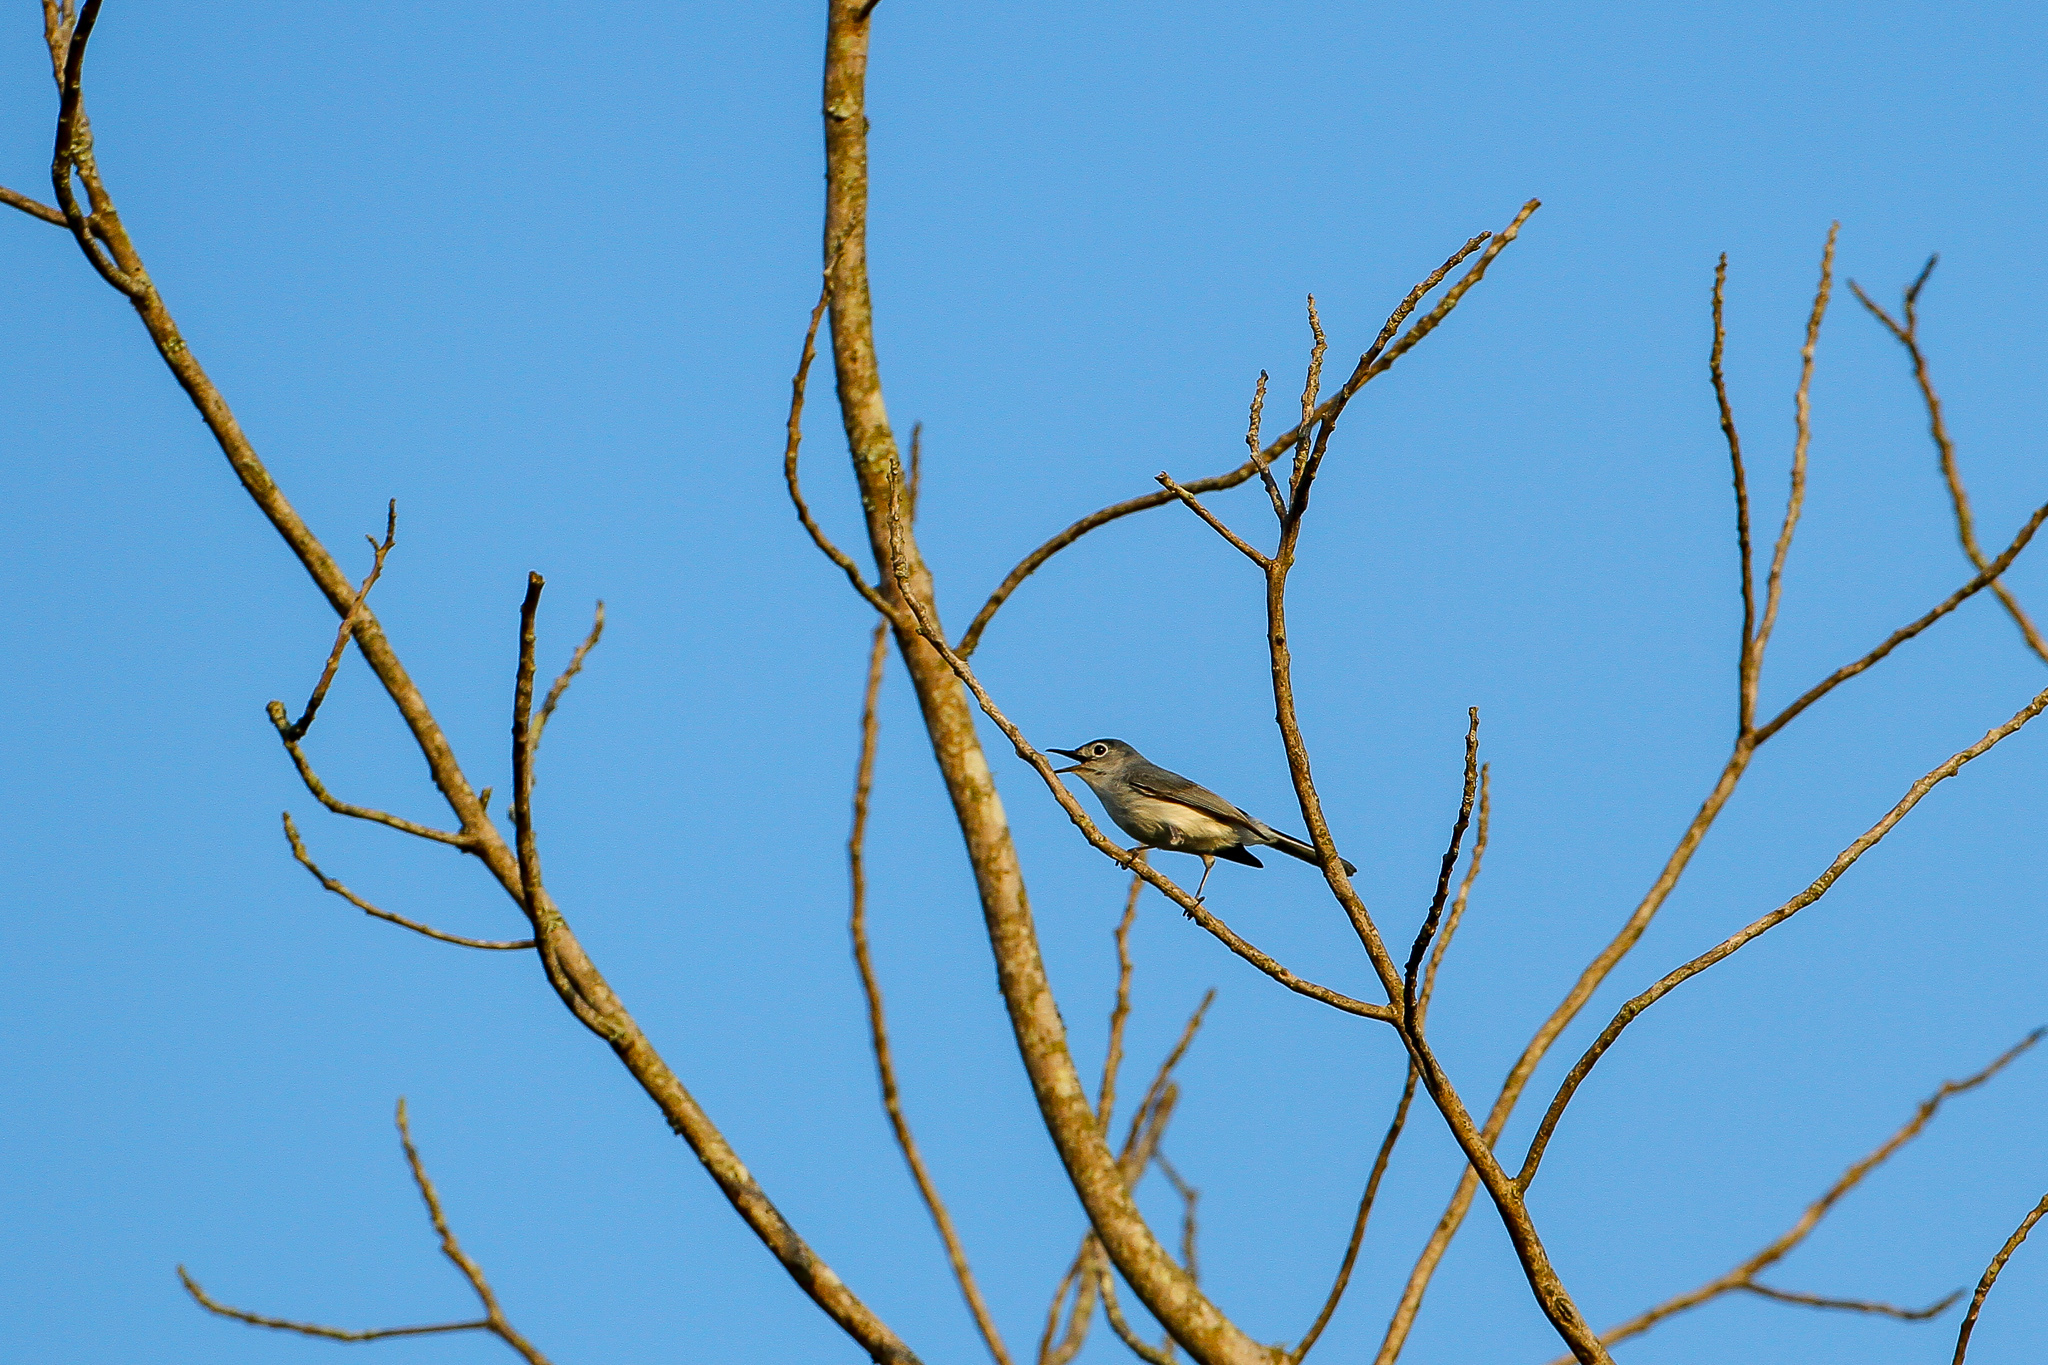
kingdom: Animalia
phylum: Chordata
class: Aves
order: Passeriformes
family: Polioptilidae
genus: Polioptila
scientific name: Polioptila caerulea
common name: Blue-gray gnatcatcher
